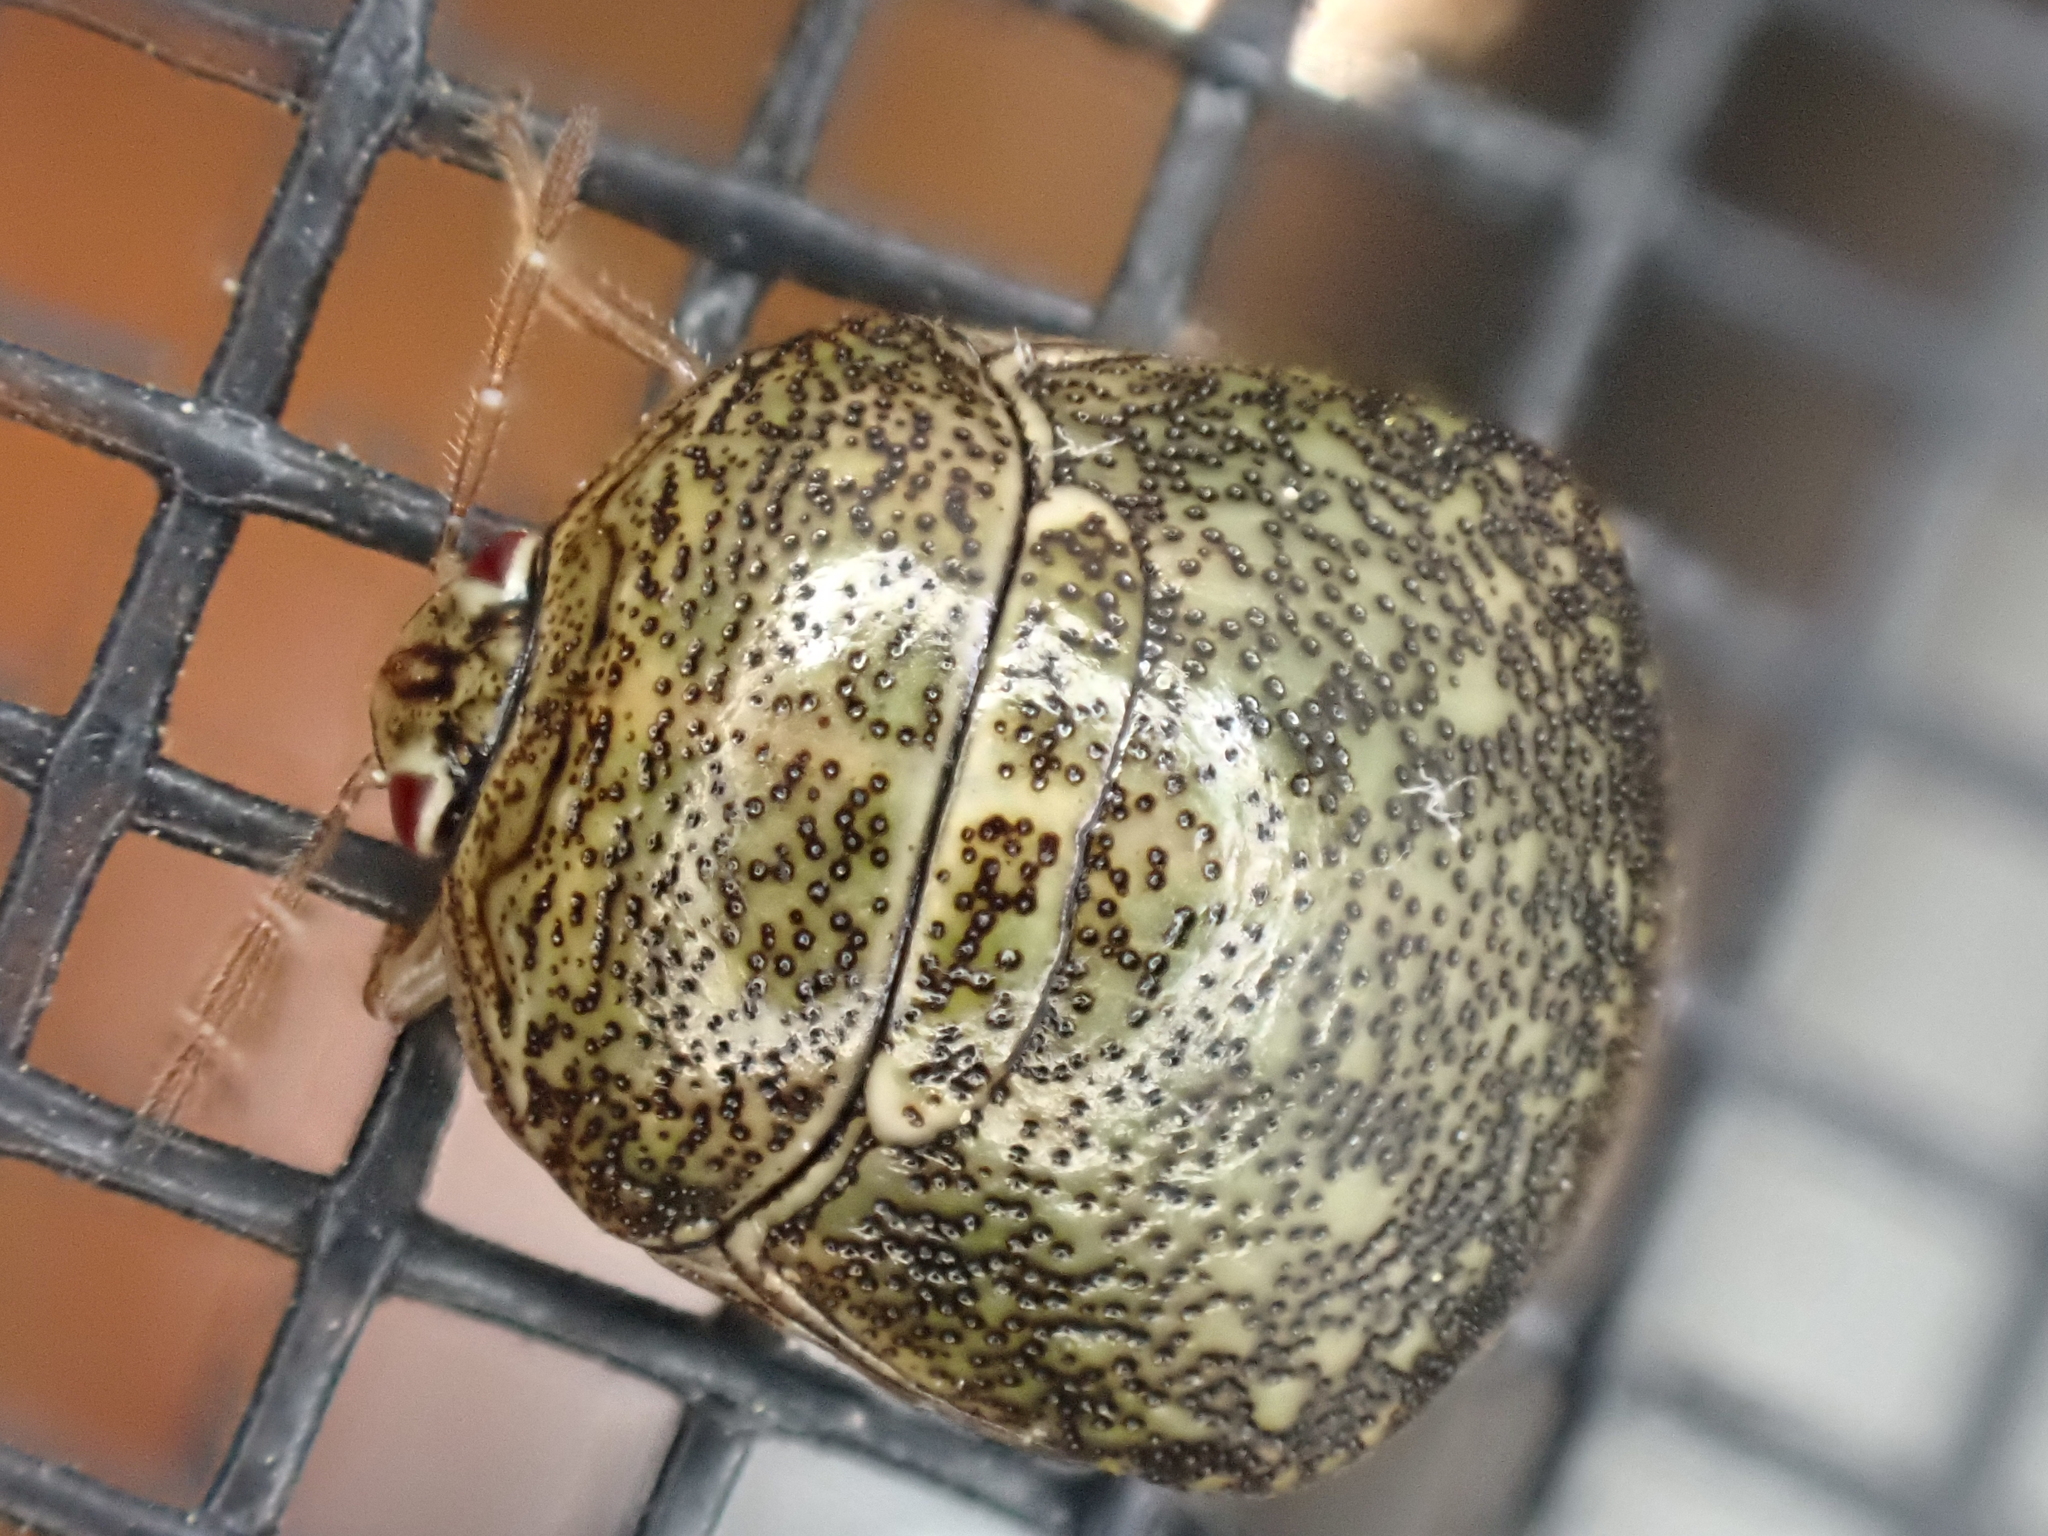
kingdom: Animalia
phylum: Arthropoda
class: Insecta
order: Hemiptera
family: Plataspidae
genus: Megacopta
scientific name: Megacopta cribraria
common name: Bean plataspid
